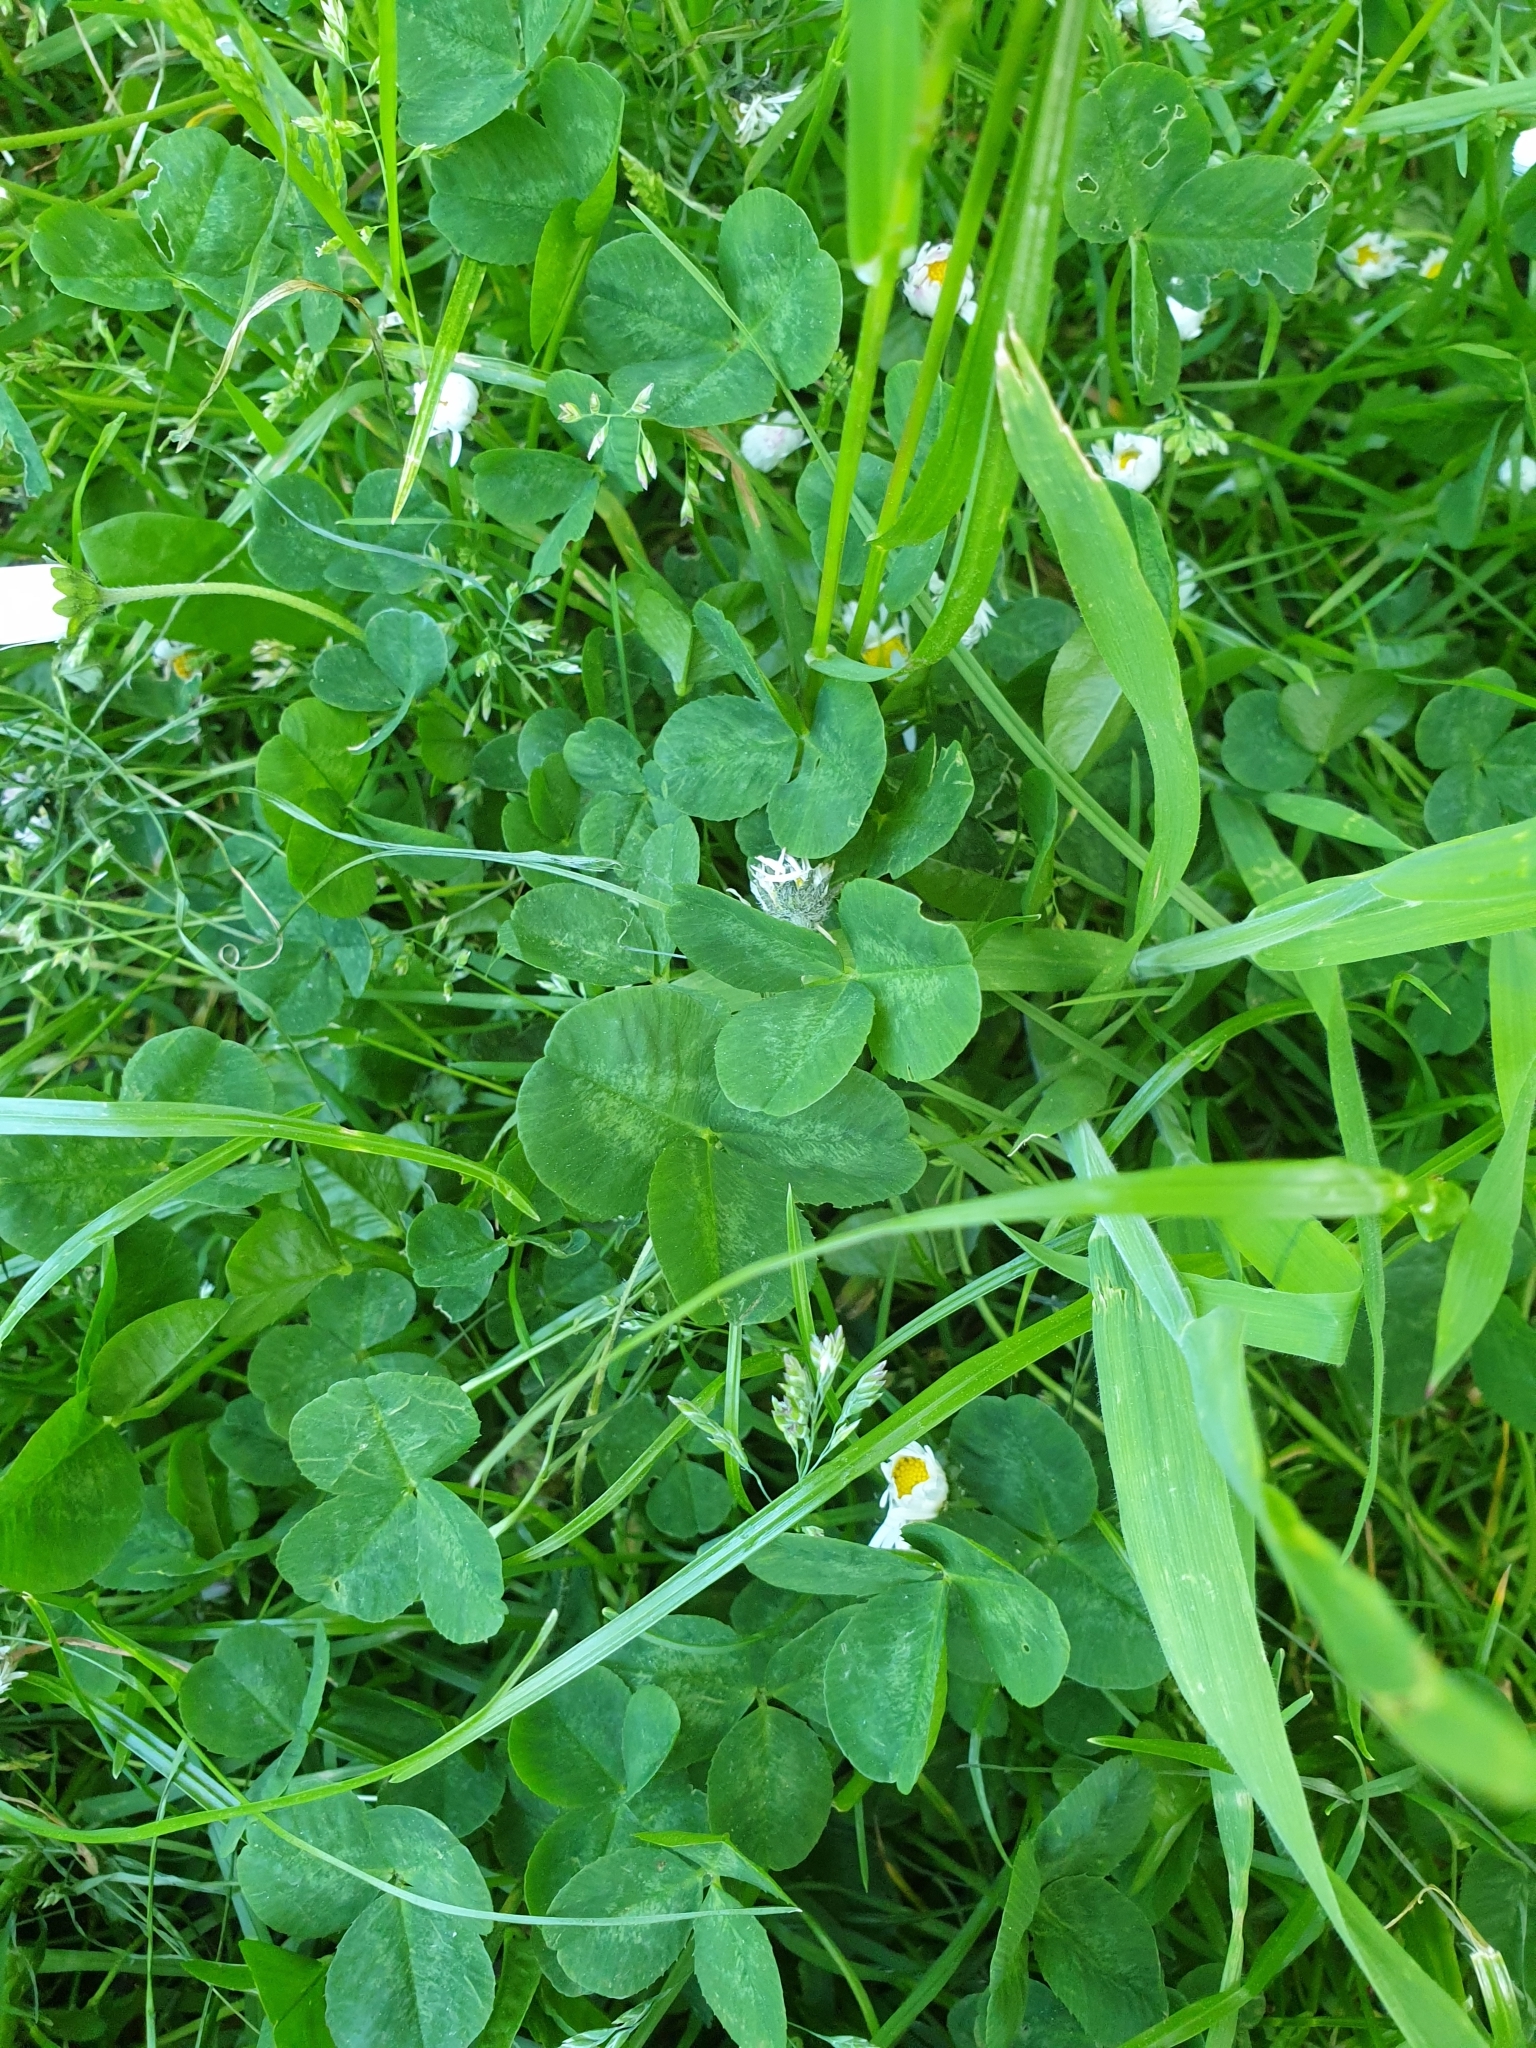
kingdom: Plantae
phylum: Tracheophyta
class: Magnoliopsida
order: Fabales
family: Fabaceae
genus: Trifolium
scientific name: Trifolium repens
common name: White clover
